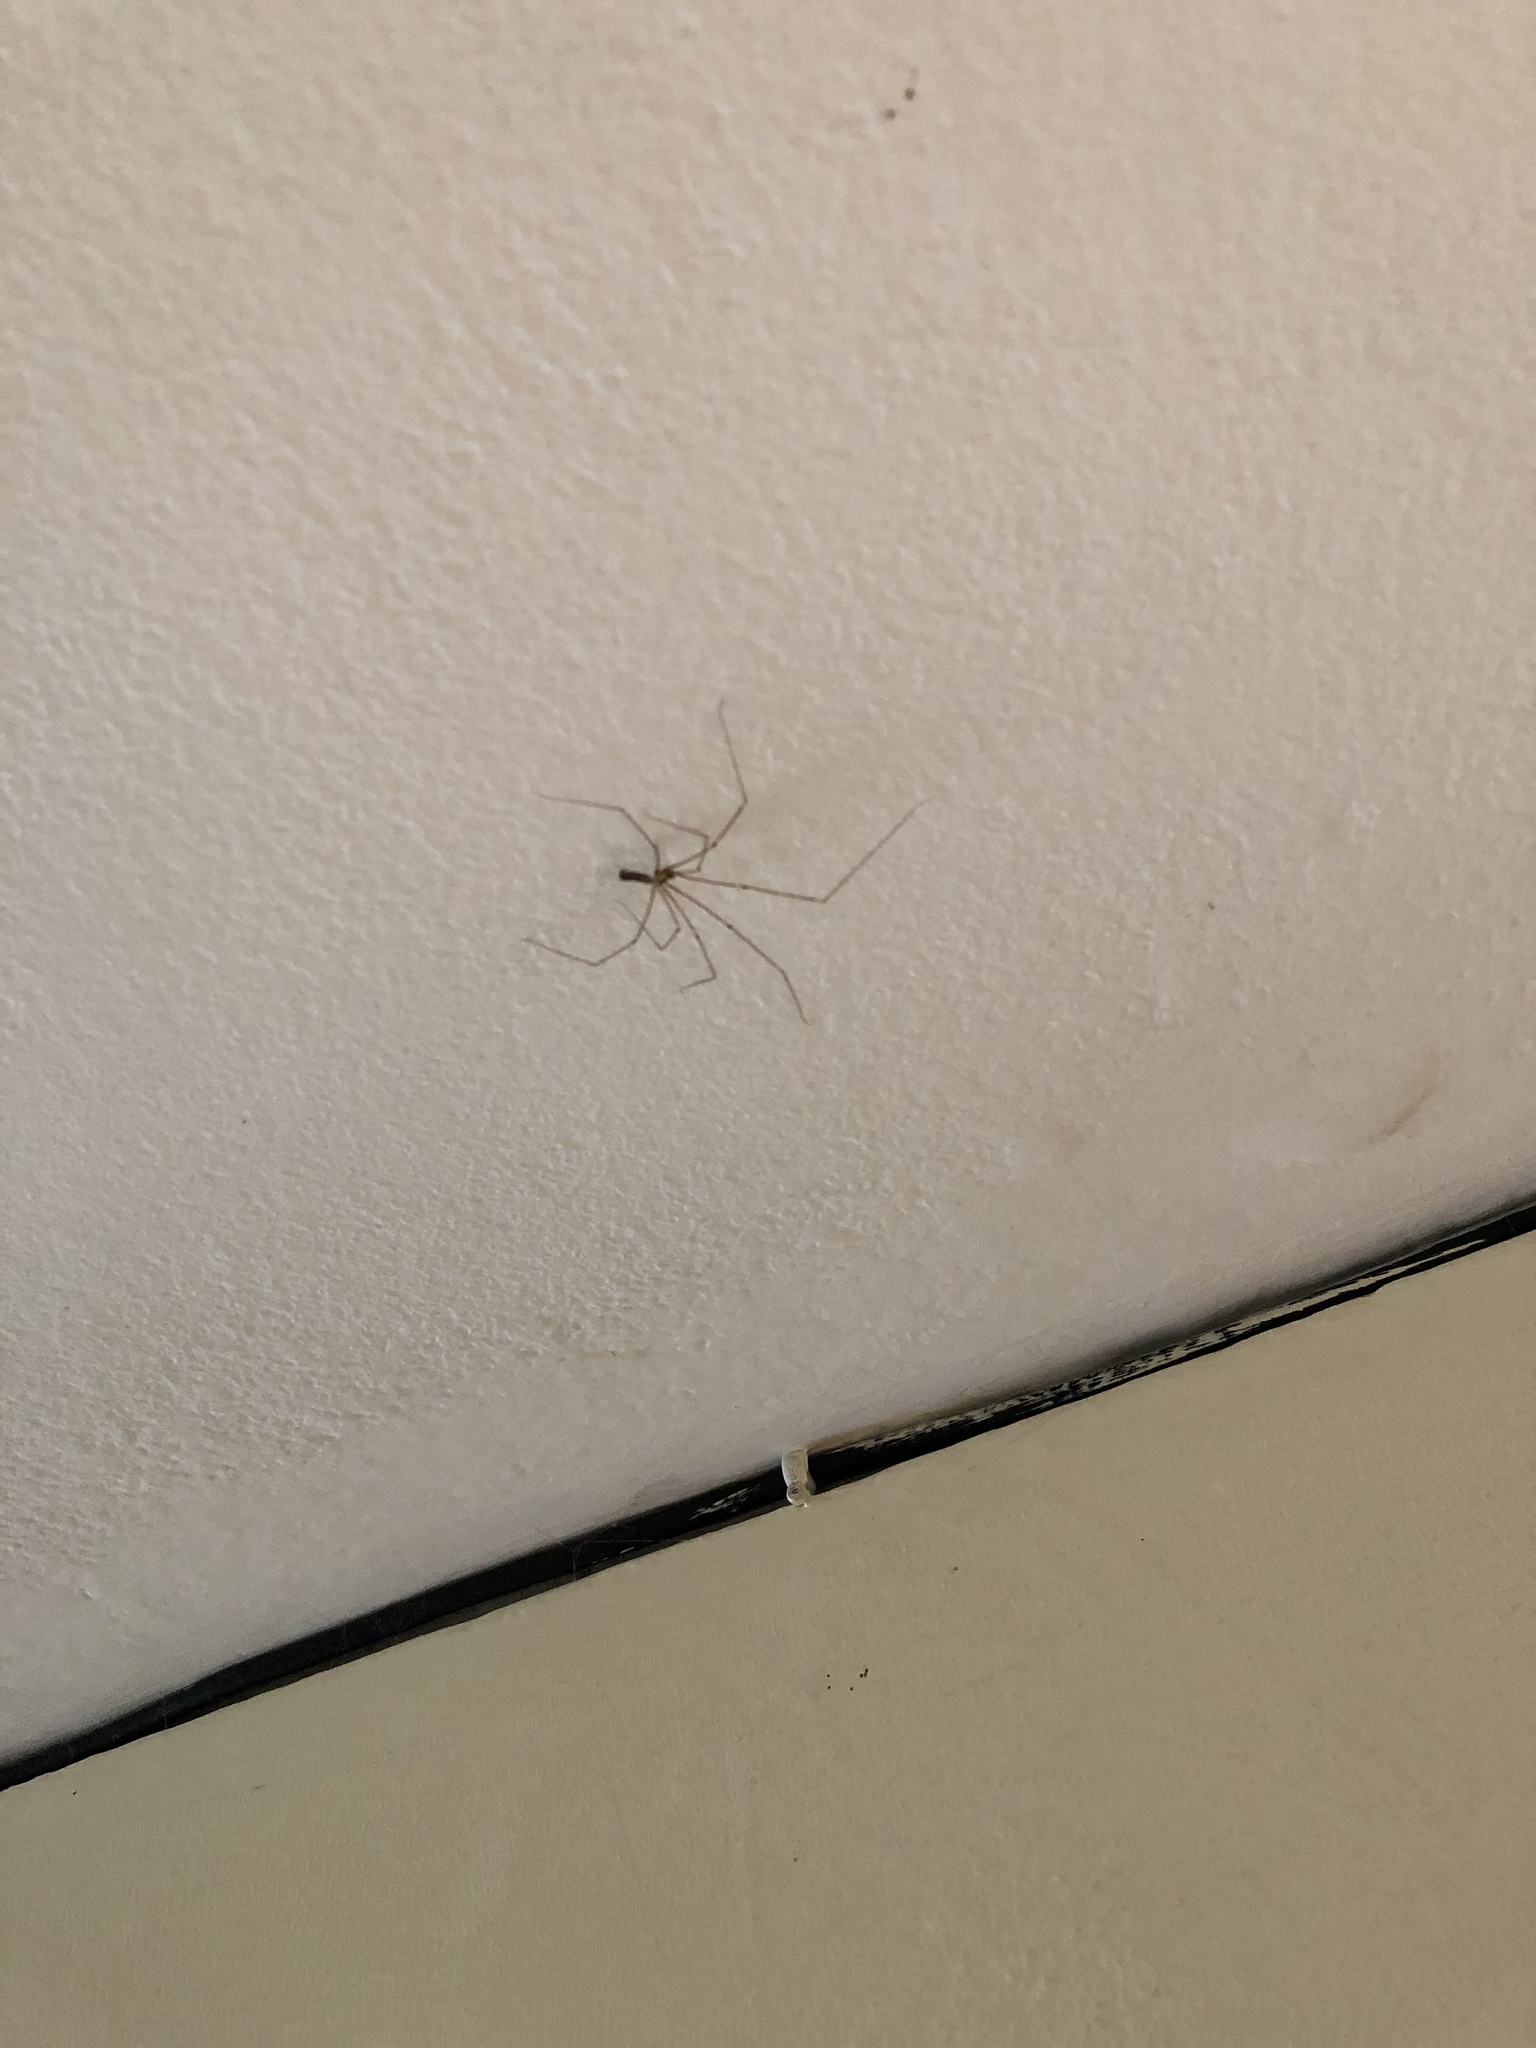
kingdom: Animalia
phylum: Arthropoda
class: Arachnida
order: Araneae
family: Pholcidae
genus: Pholcus
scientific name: Pholcus phalangioides
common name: Longbodied cellar spider
